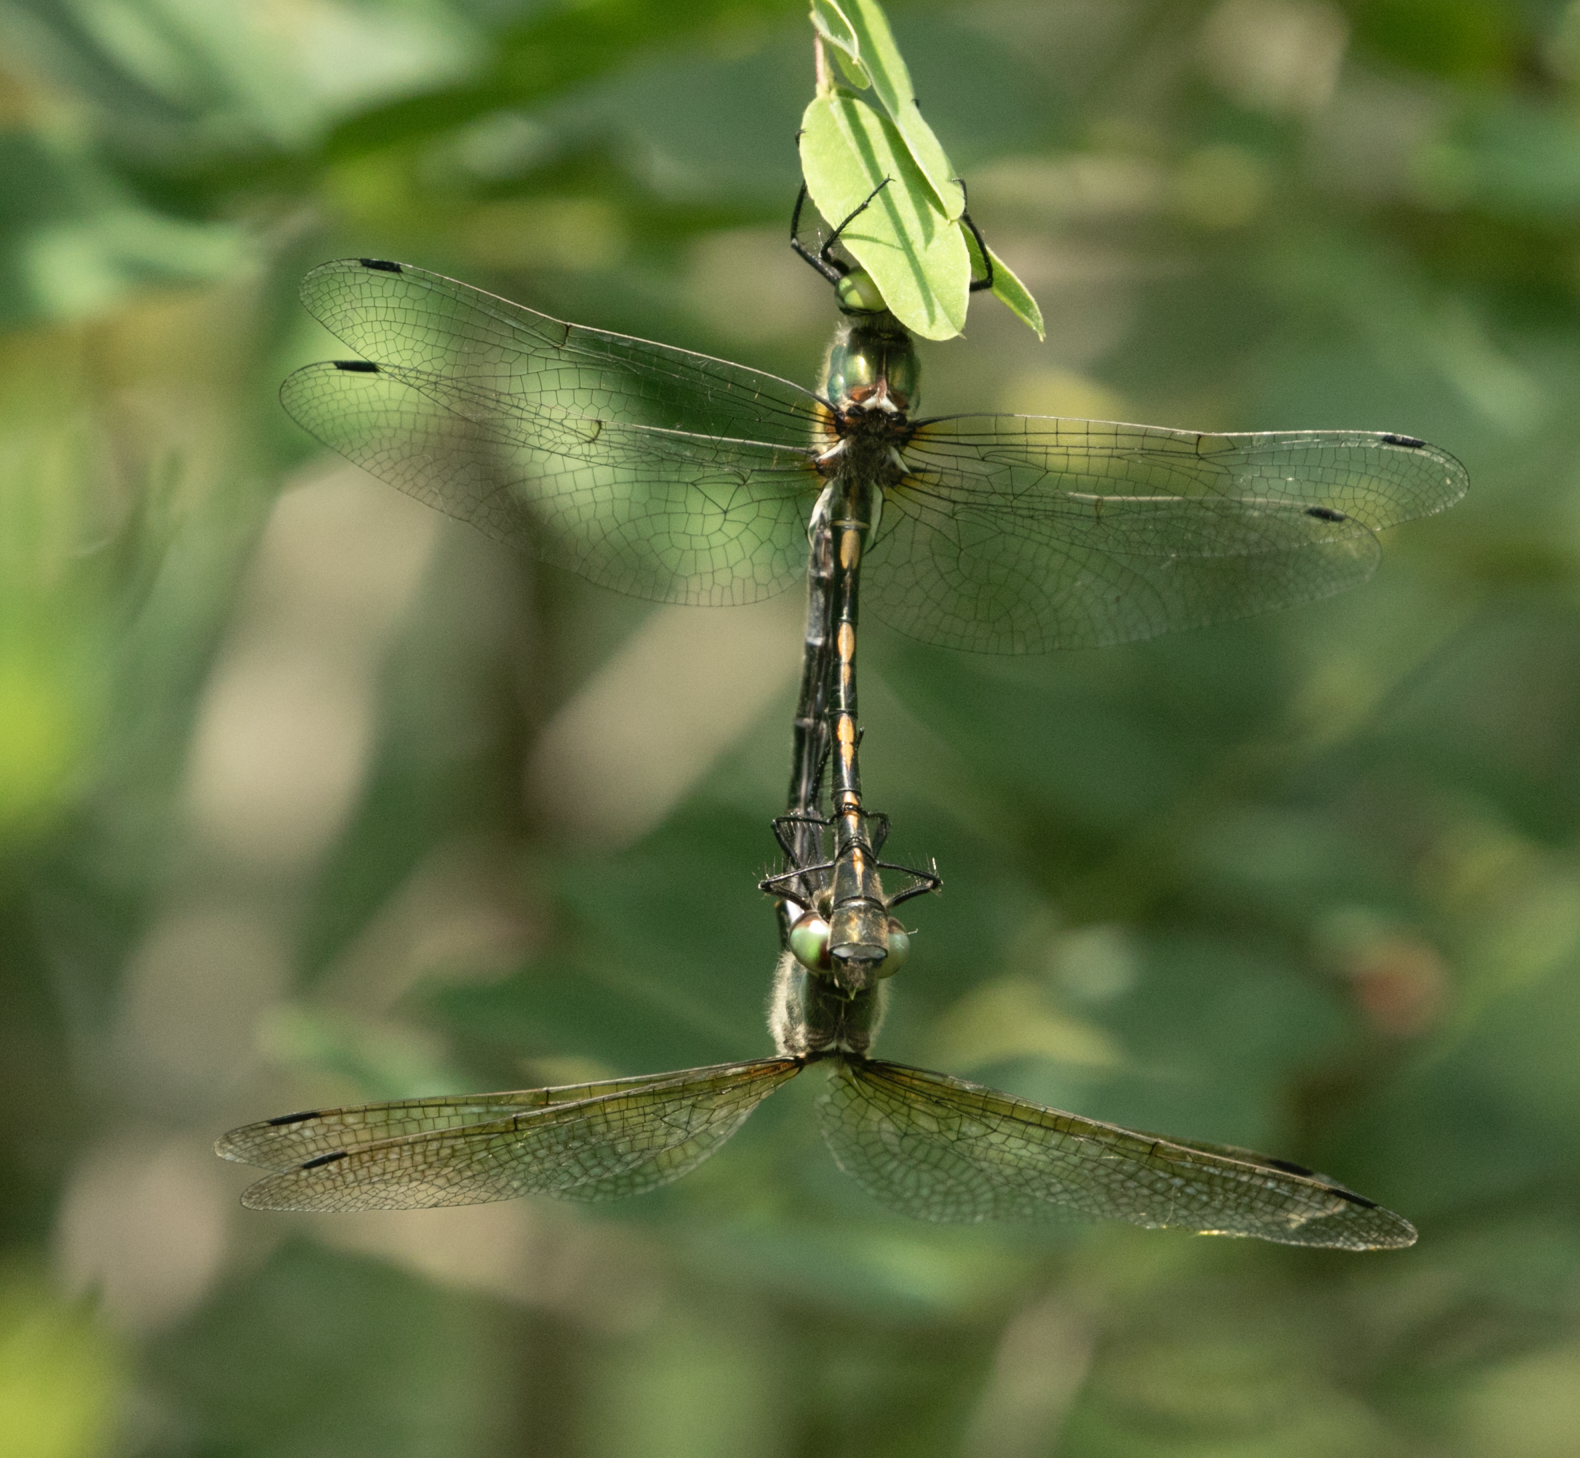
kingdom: Animalia
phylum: Arthropoda
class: Insecta
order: Odonata
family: Corduliidae
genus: Oxygastra
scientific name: Oxygastra curtisii
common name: Orange-spotted emerald
